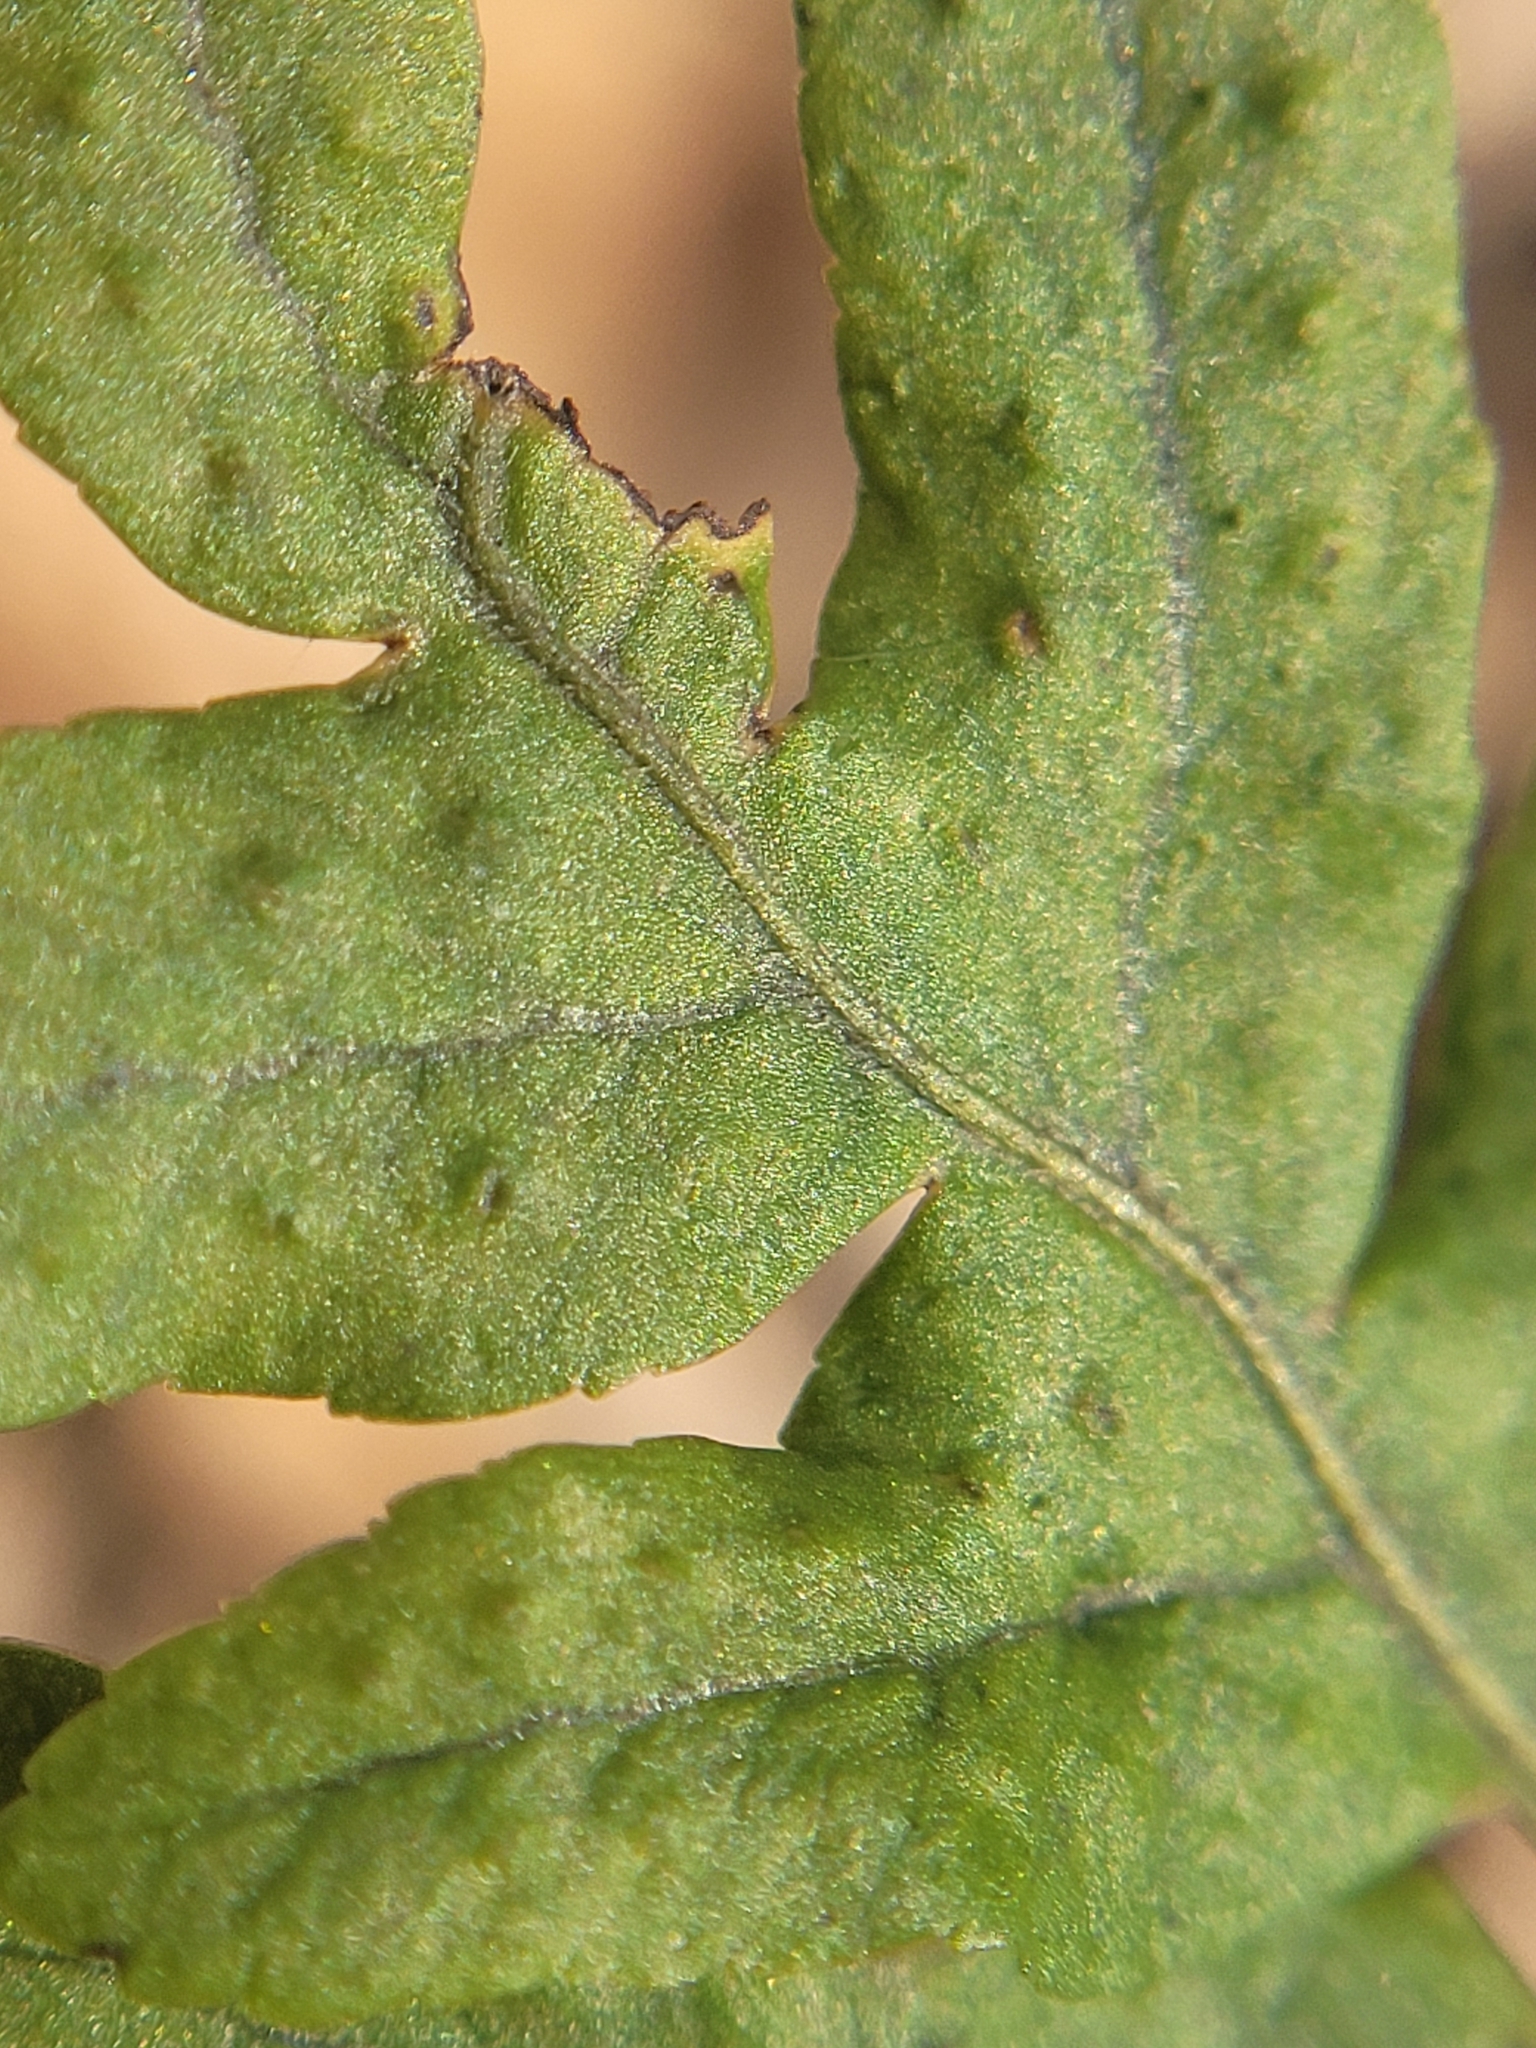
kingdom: Plantae
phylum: Tracheophyta
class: Polypodiopsida
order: Polypodiales
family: Polypodiaceae
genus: Polypodium
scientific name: Polypodium vulgare
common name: Common polypody
